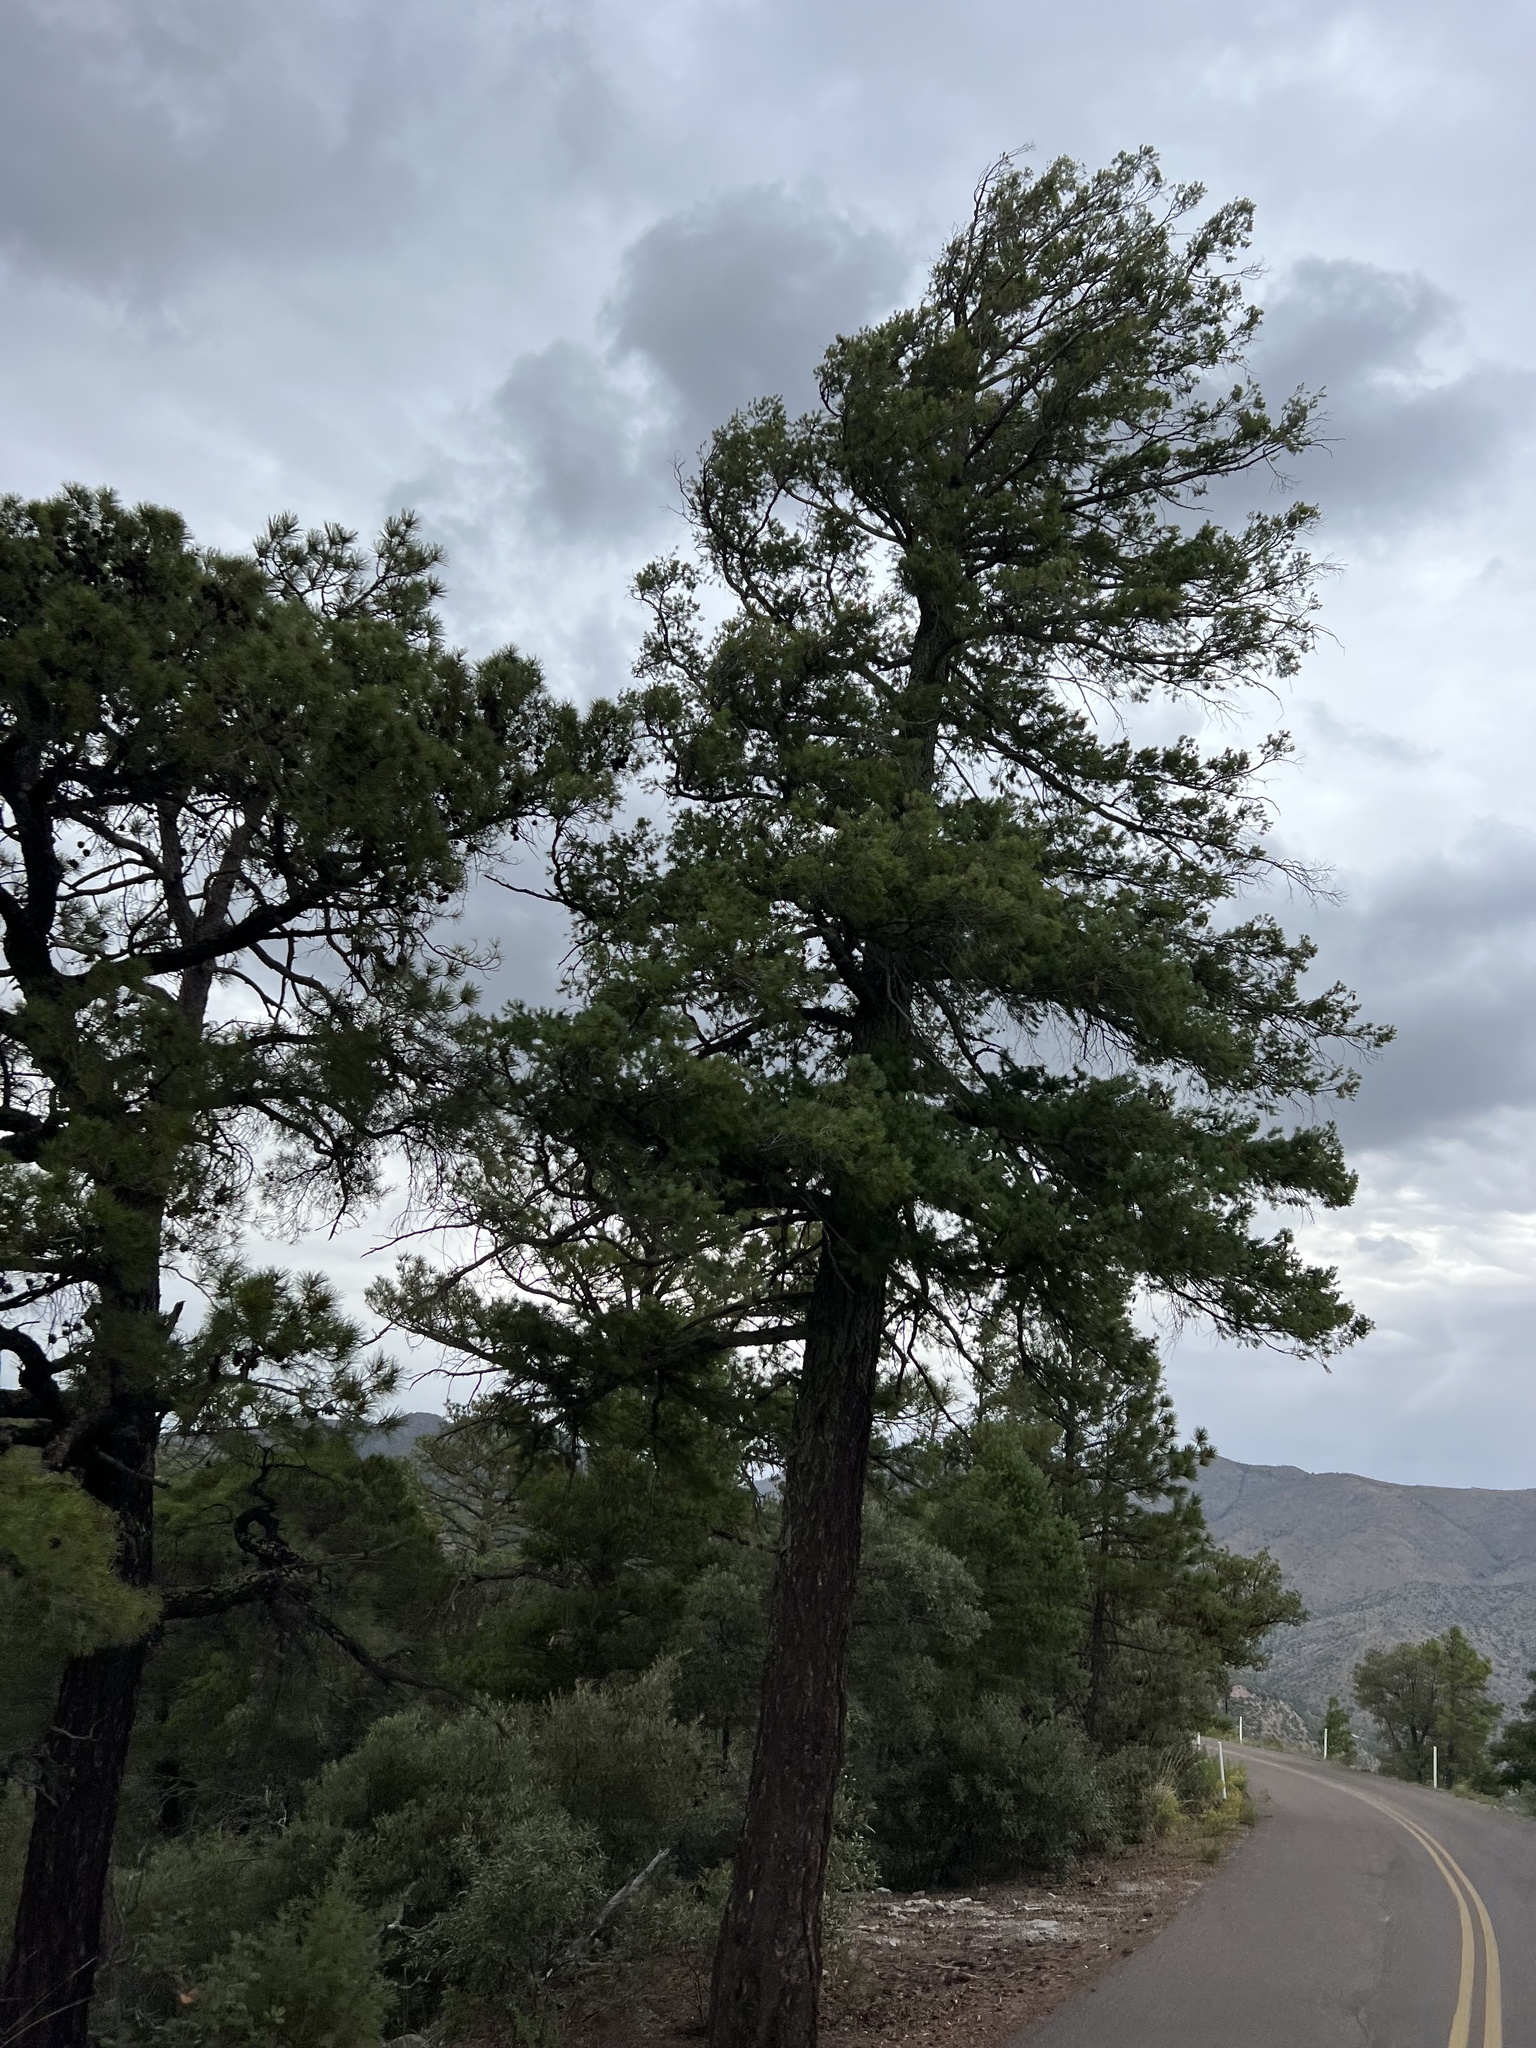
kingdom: Plantae
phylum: Tracheophyta
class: Pinopsida
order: Pinales
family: Pinaceae
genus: Pseudotsuga
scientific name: Pseudotsuga menziesii
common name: Douglas fir
